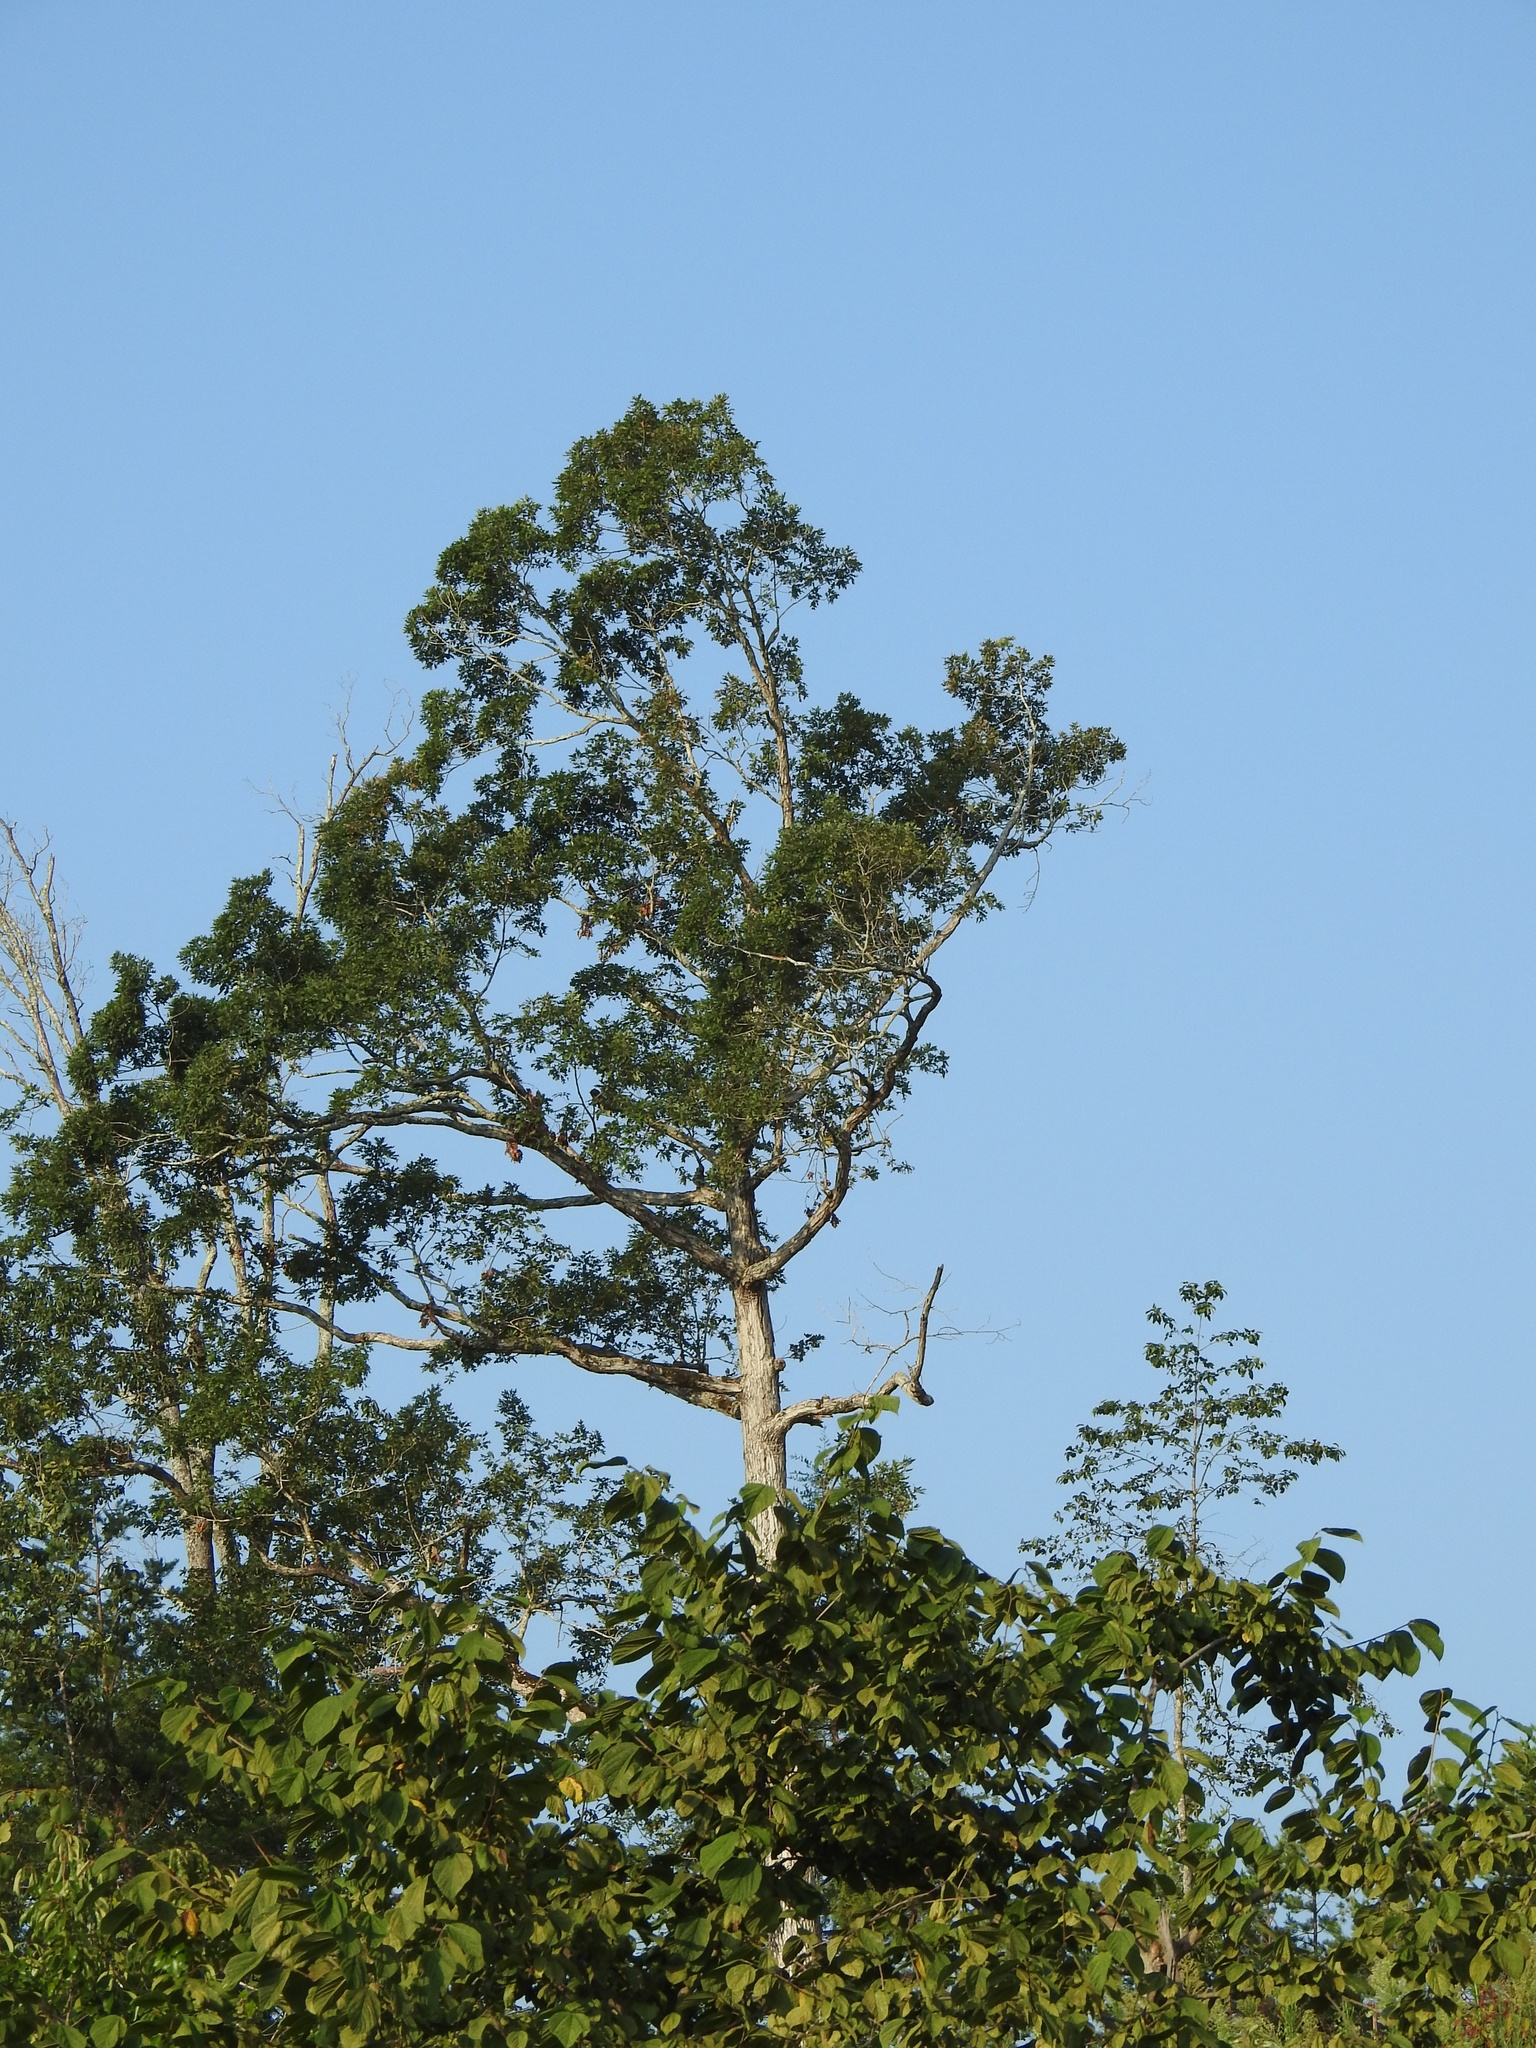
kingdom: Plantae
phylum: Tracheophyta
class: Magnoliopsida
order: Fagales
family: Fagaceae
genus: Quercus
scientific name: Quercus alba
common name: White oak
